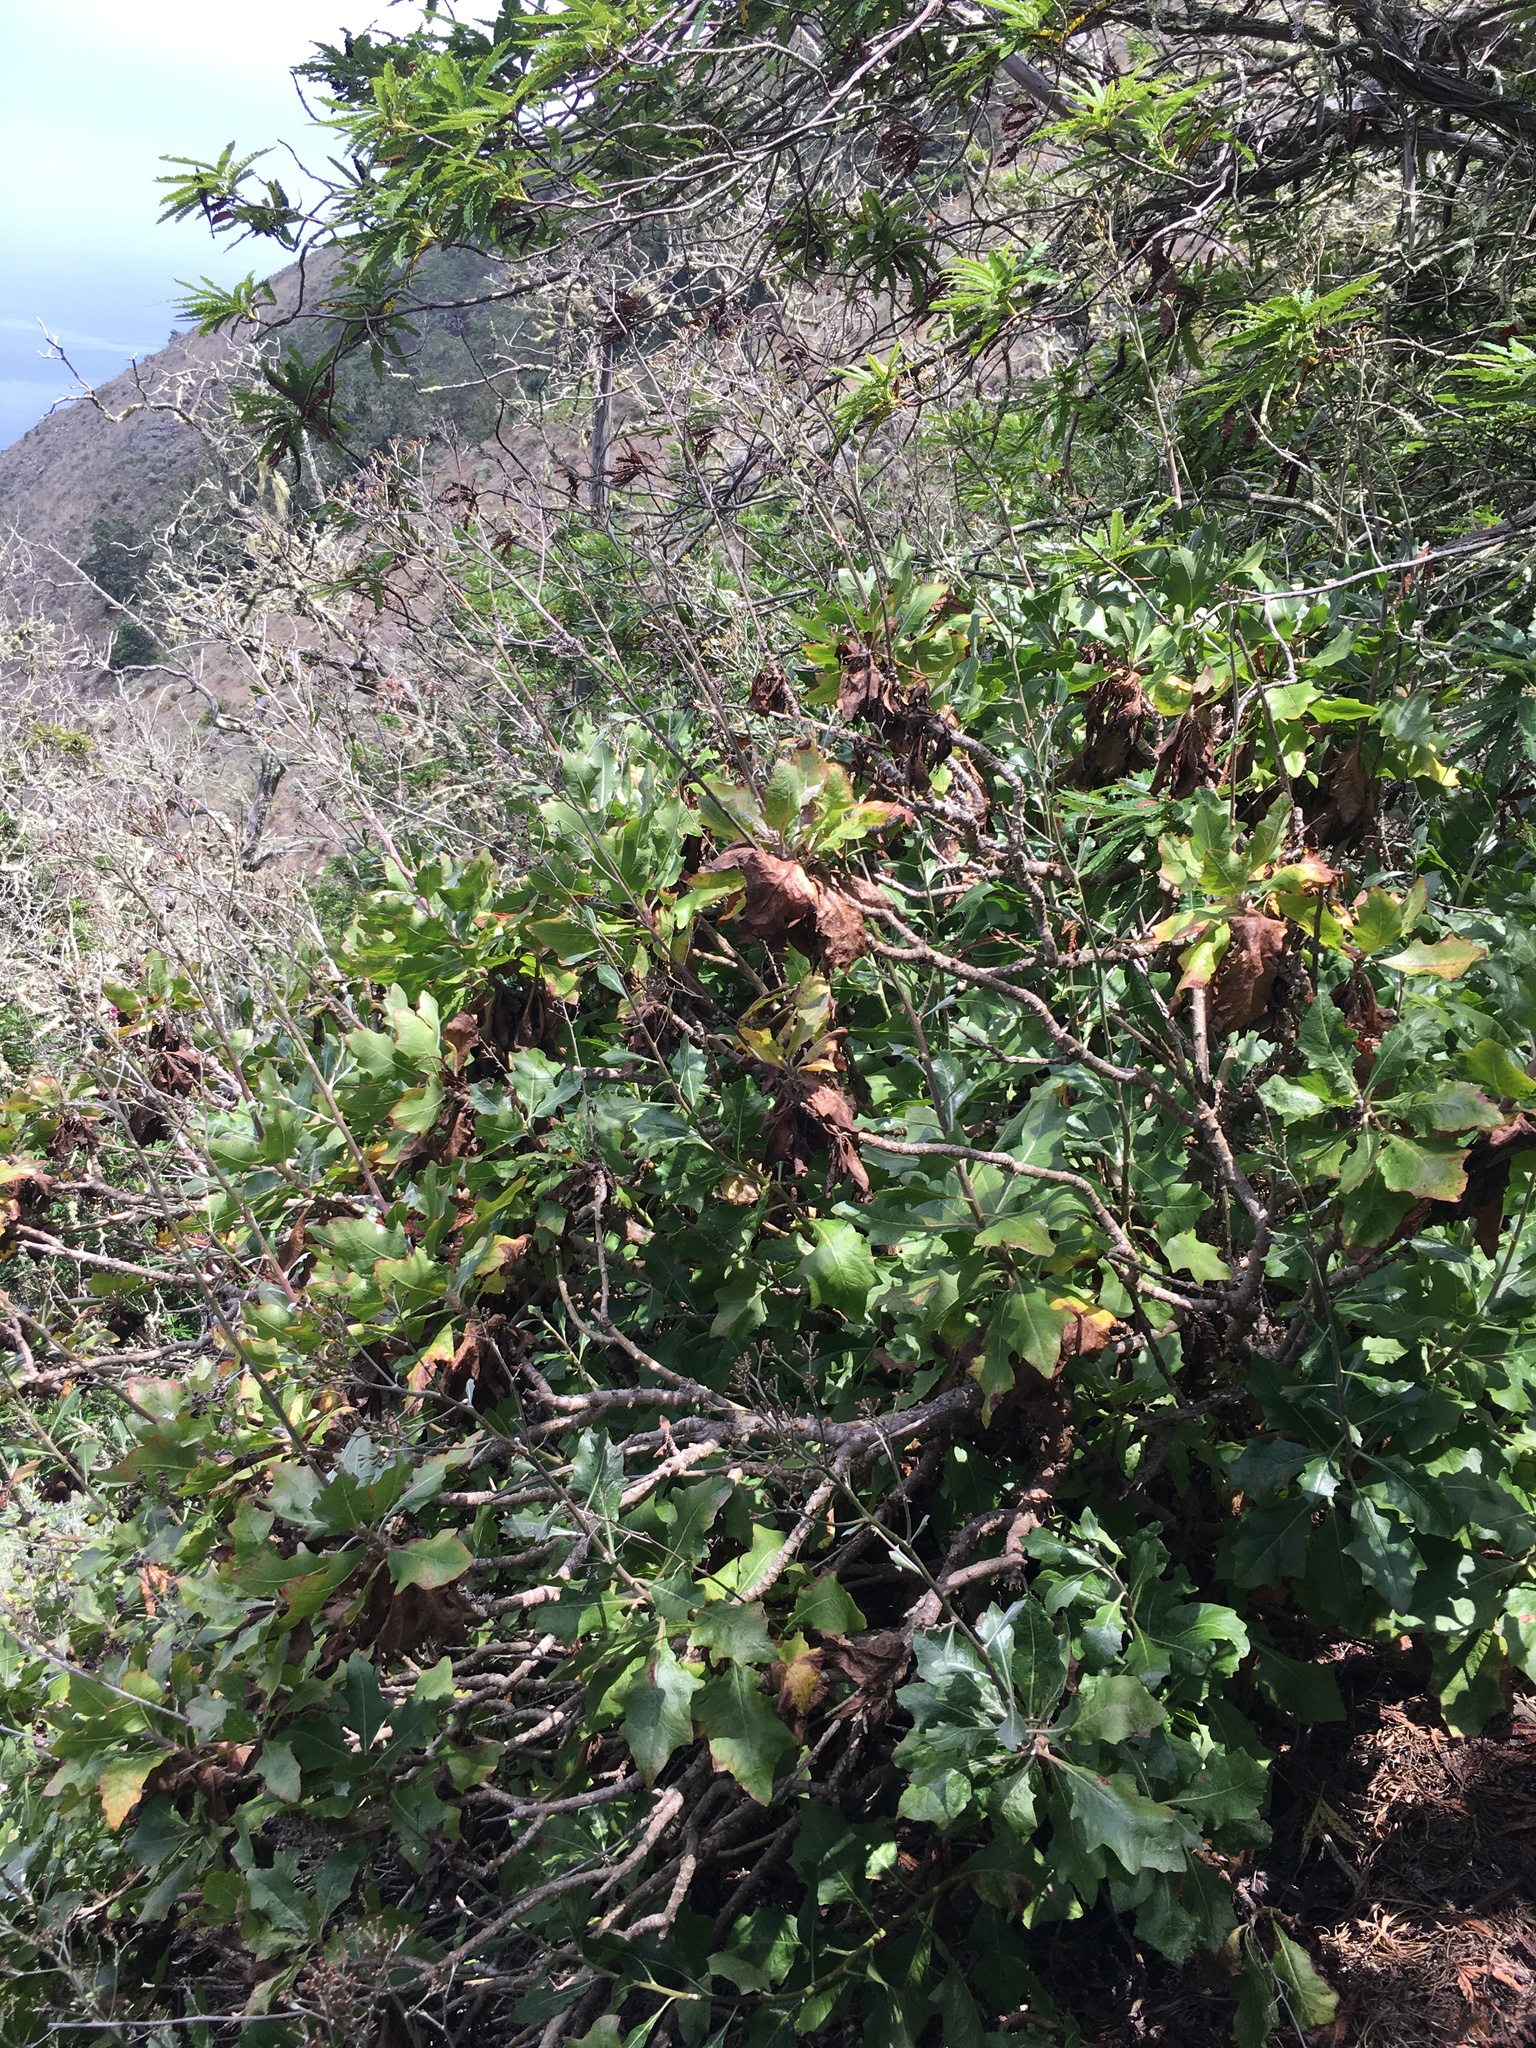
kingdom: Plantae
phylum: Tracheophyta
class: Magnoliopsida
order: Asterales
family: Asteraceae
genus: Munzothamnus
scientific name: Munzothamnus blairii
